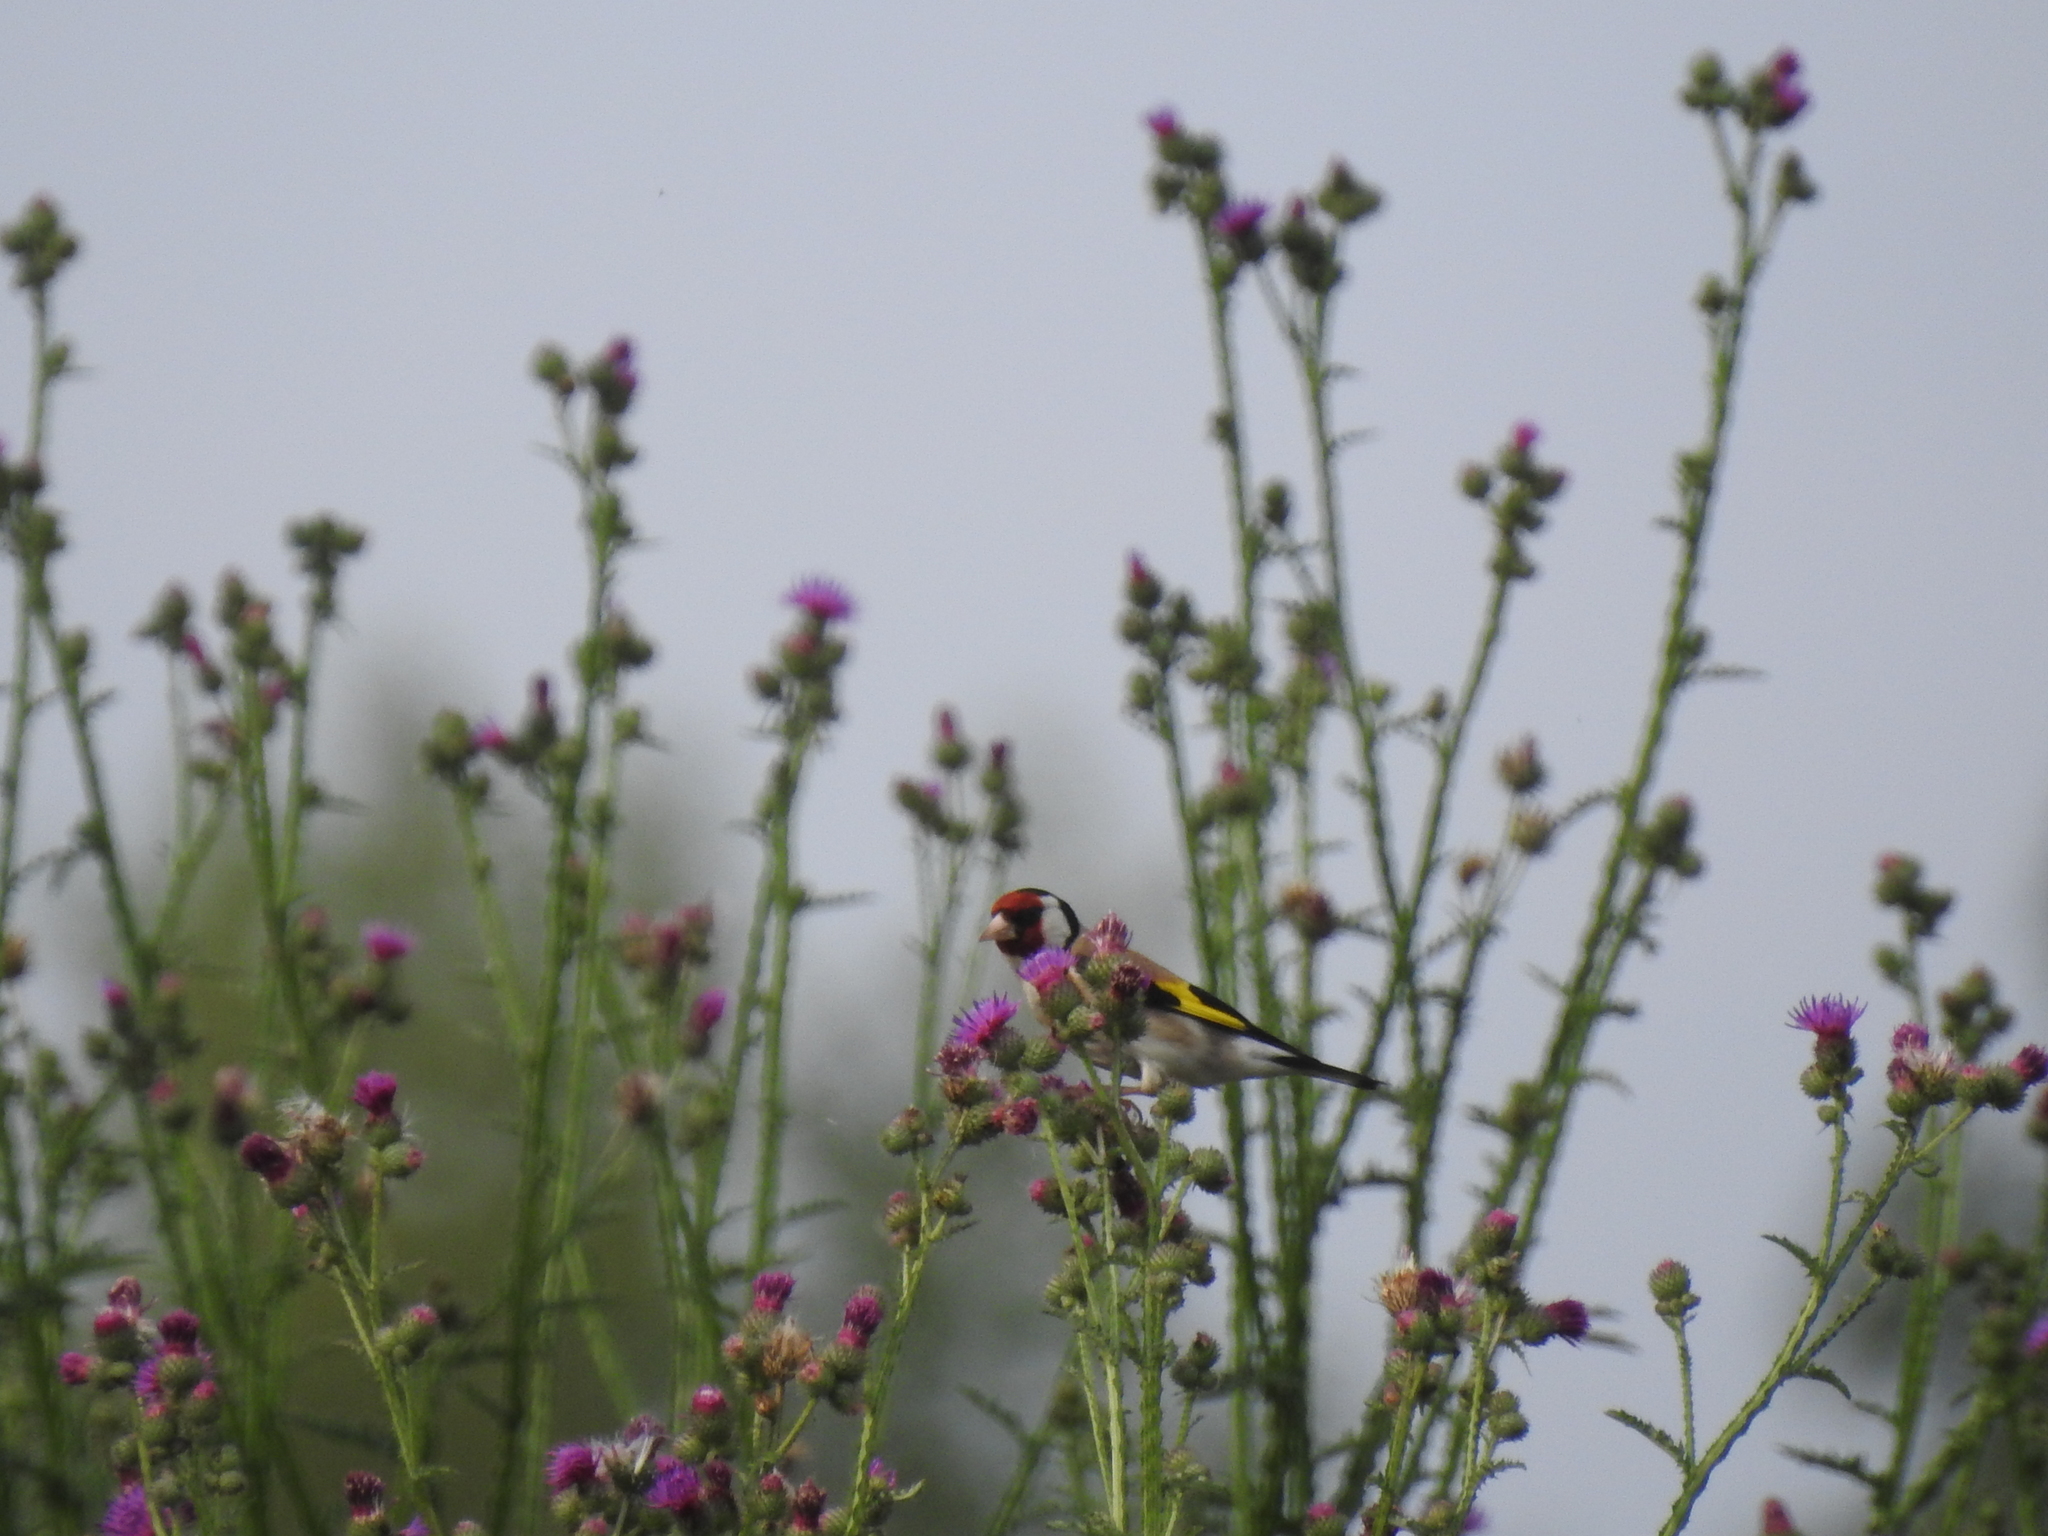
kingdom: Animalia
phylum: Chordata
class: Aves
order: Passeriformes
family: Fringillidae
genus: Carduelis
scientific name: Carduelis carduelis
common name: European goldfinch
